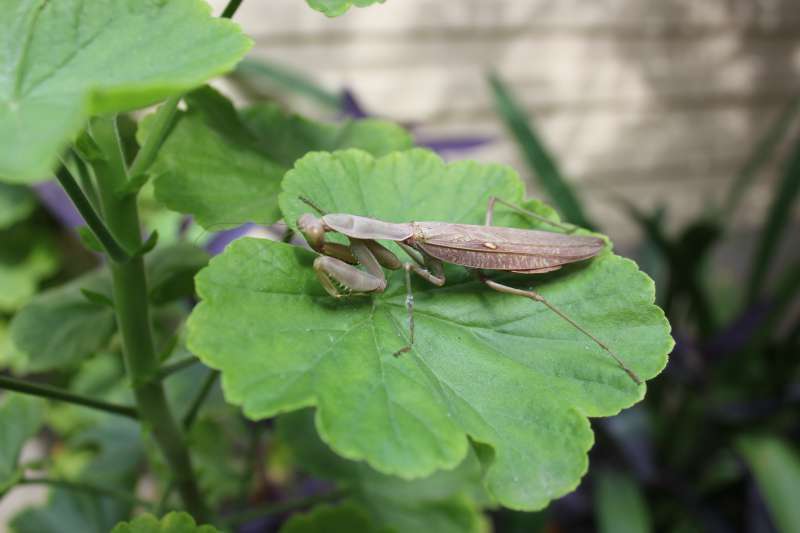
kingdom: Animalia
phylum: Arthropoda
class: Insecta
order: Mantodea
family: Mantidae
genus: Hierodula
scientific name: Hierodula transcaucasica
